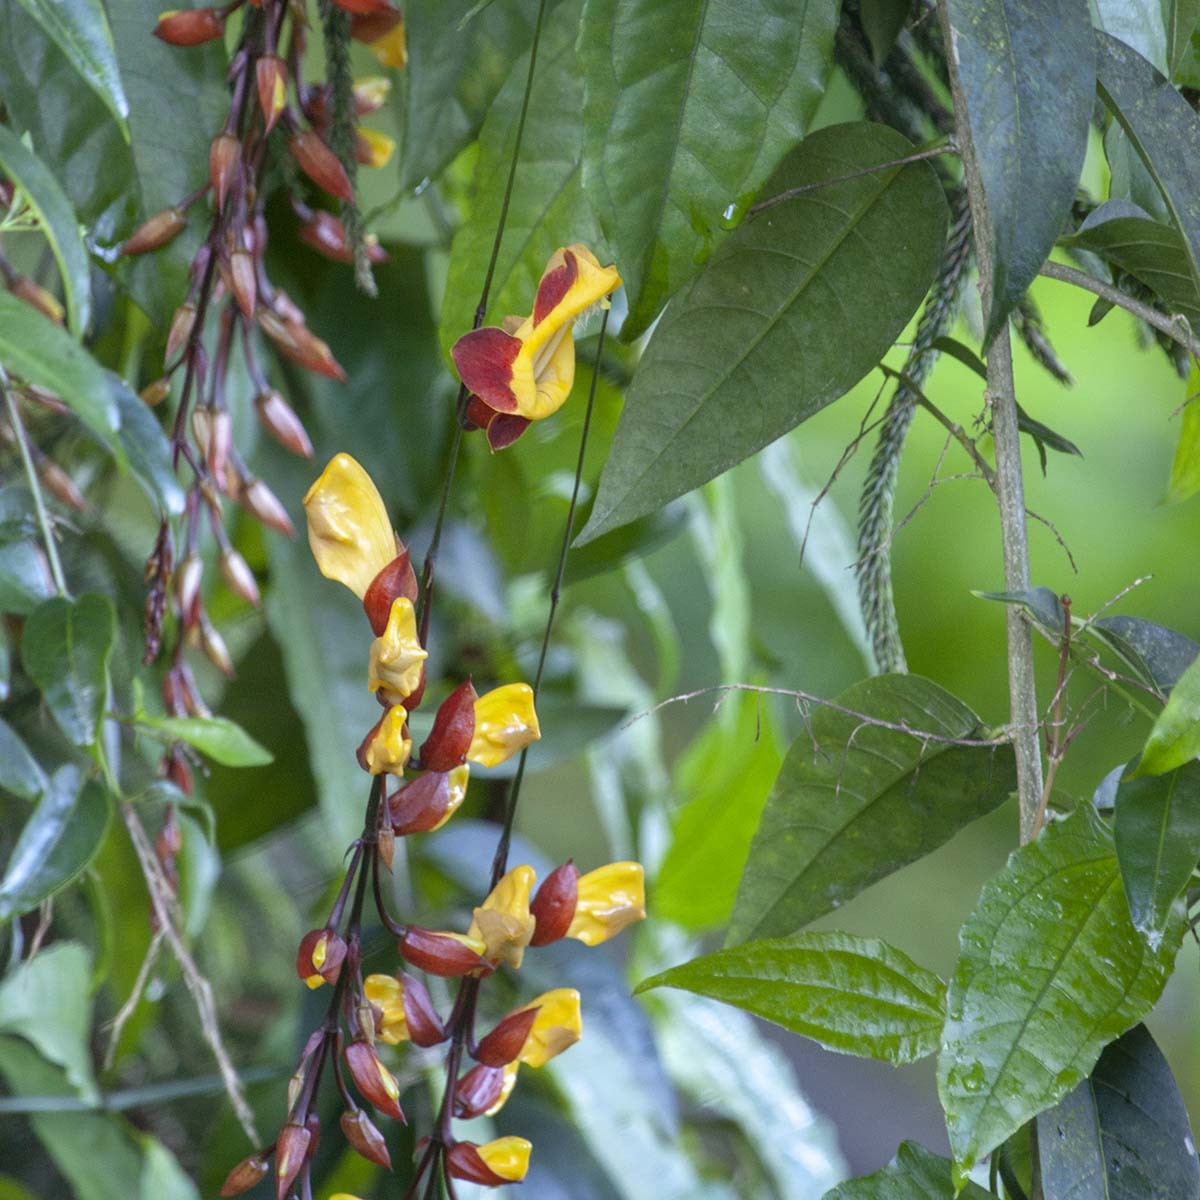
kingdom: Plantae
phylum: Tracheophyta
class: Magnoliopsida
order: Lamiales
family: Acanthaceae
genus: Thunbergia
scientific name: Thunbergia mysorensis
